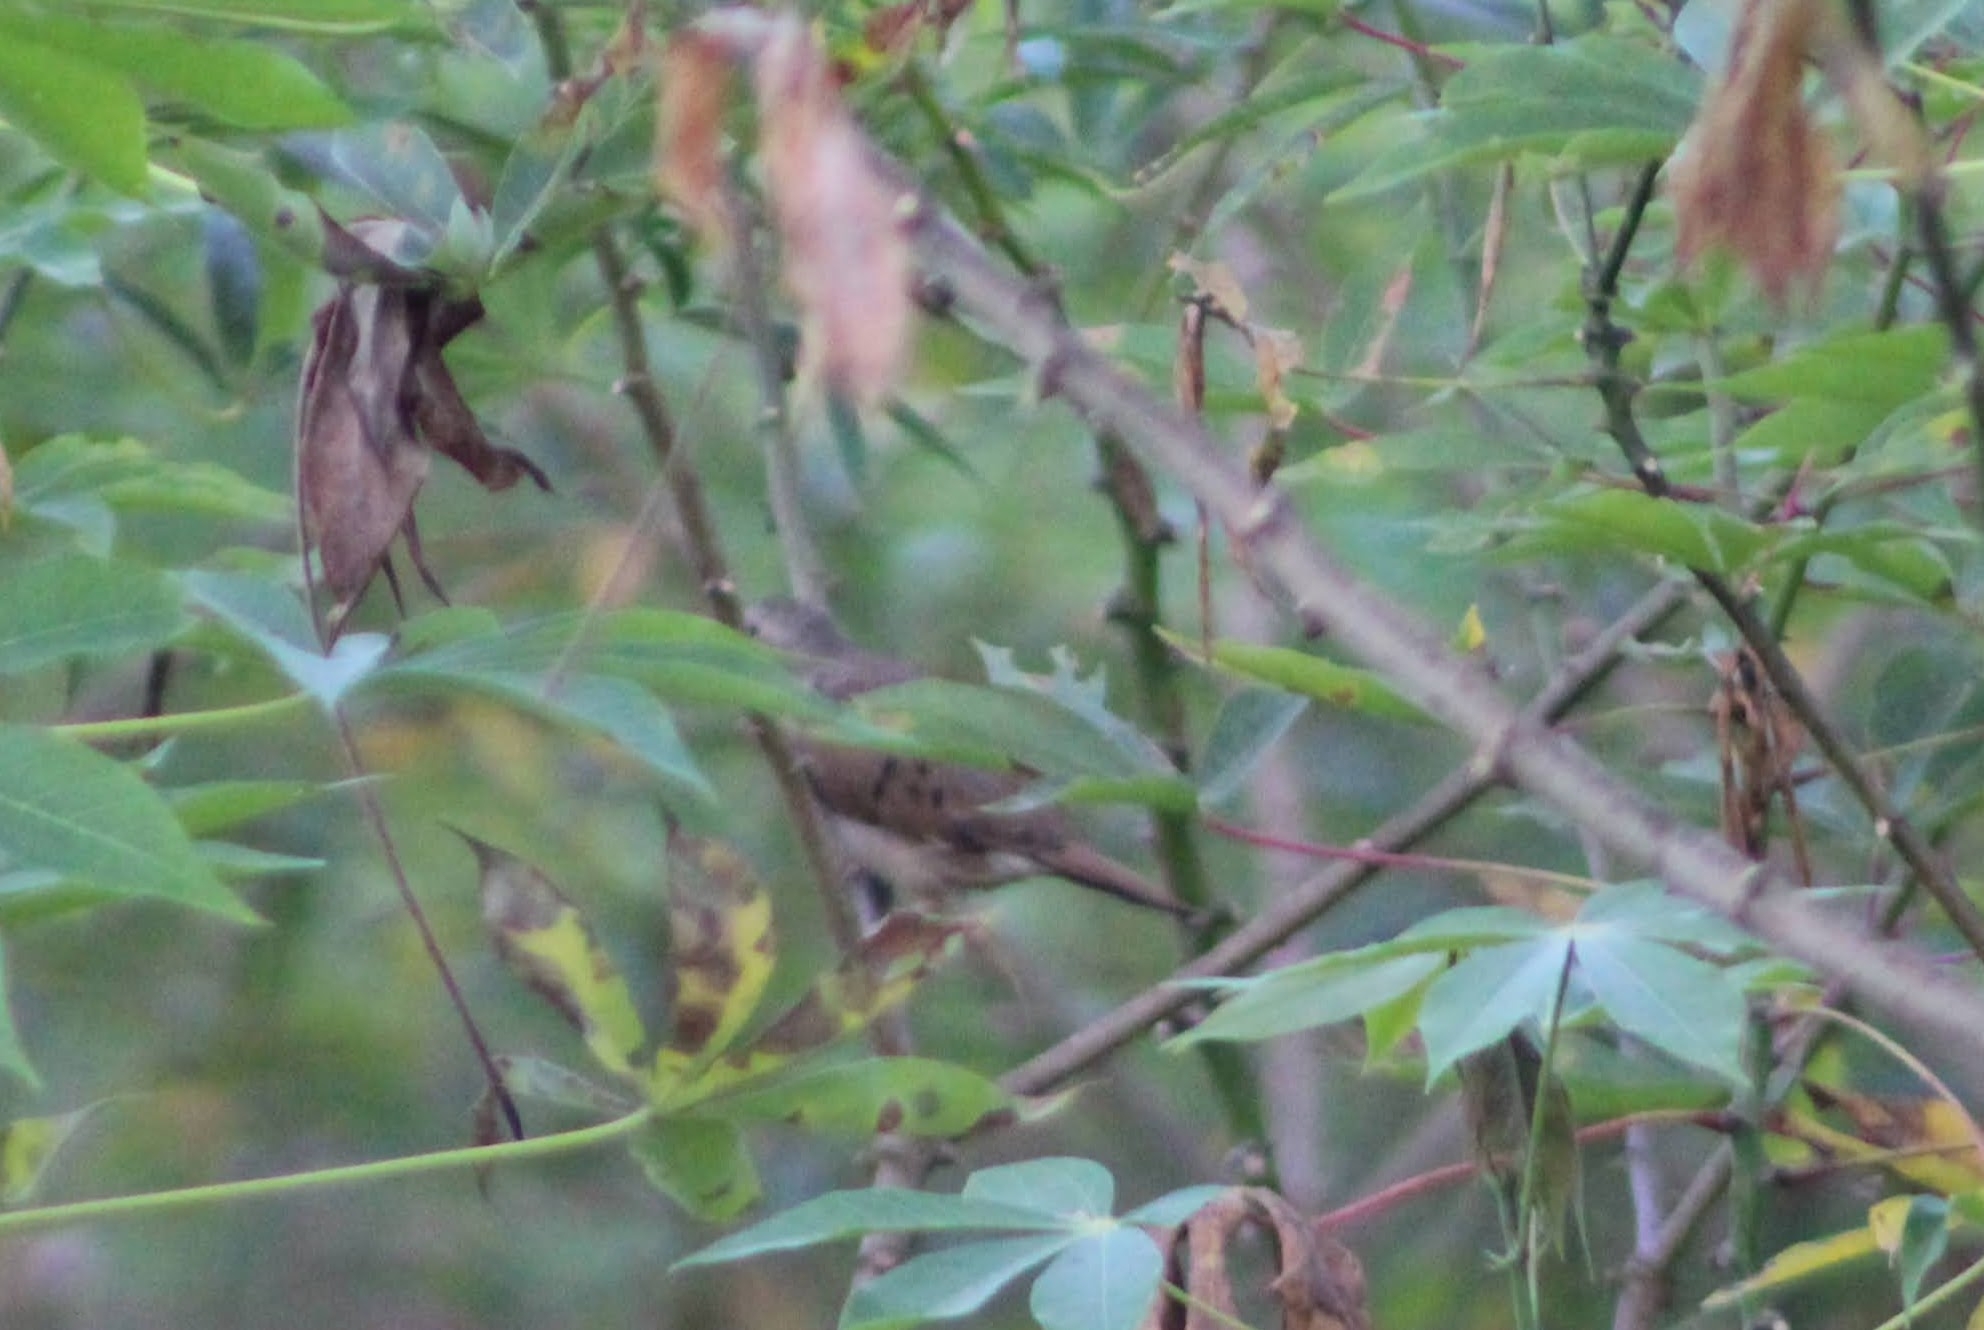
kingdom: Animalia
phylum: Chordata
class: Aves
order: Columbiformes
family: Columbidae
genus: Columbina
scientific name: Columbina talpacoti
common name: Ruddy ground dove
